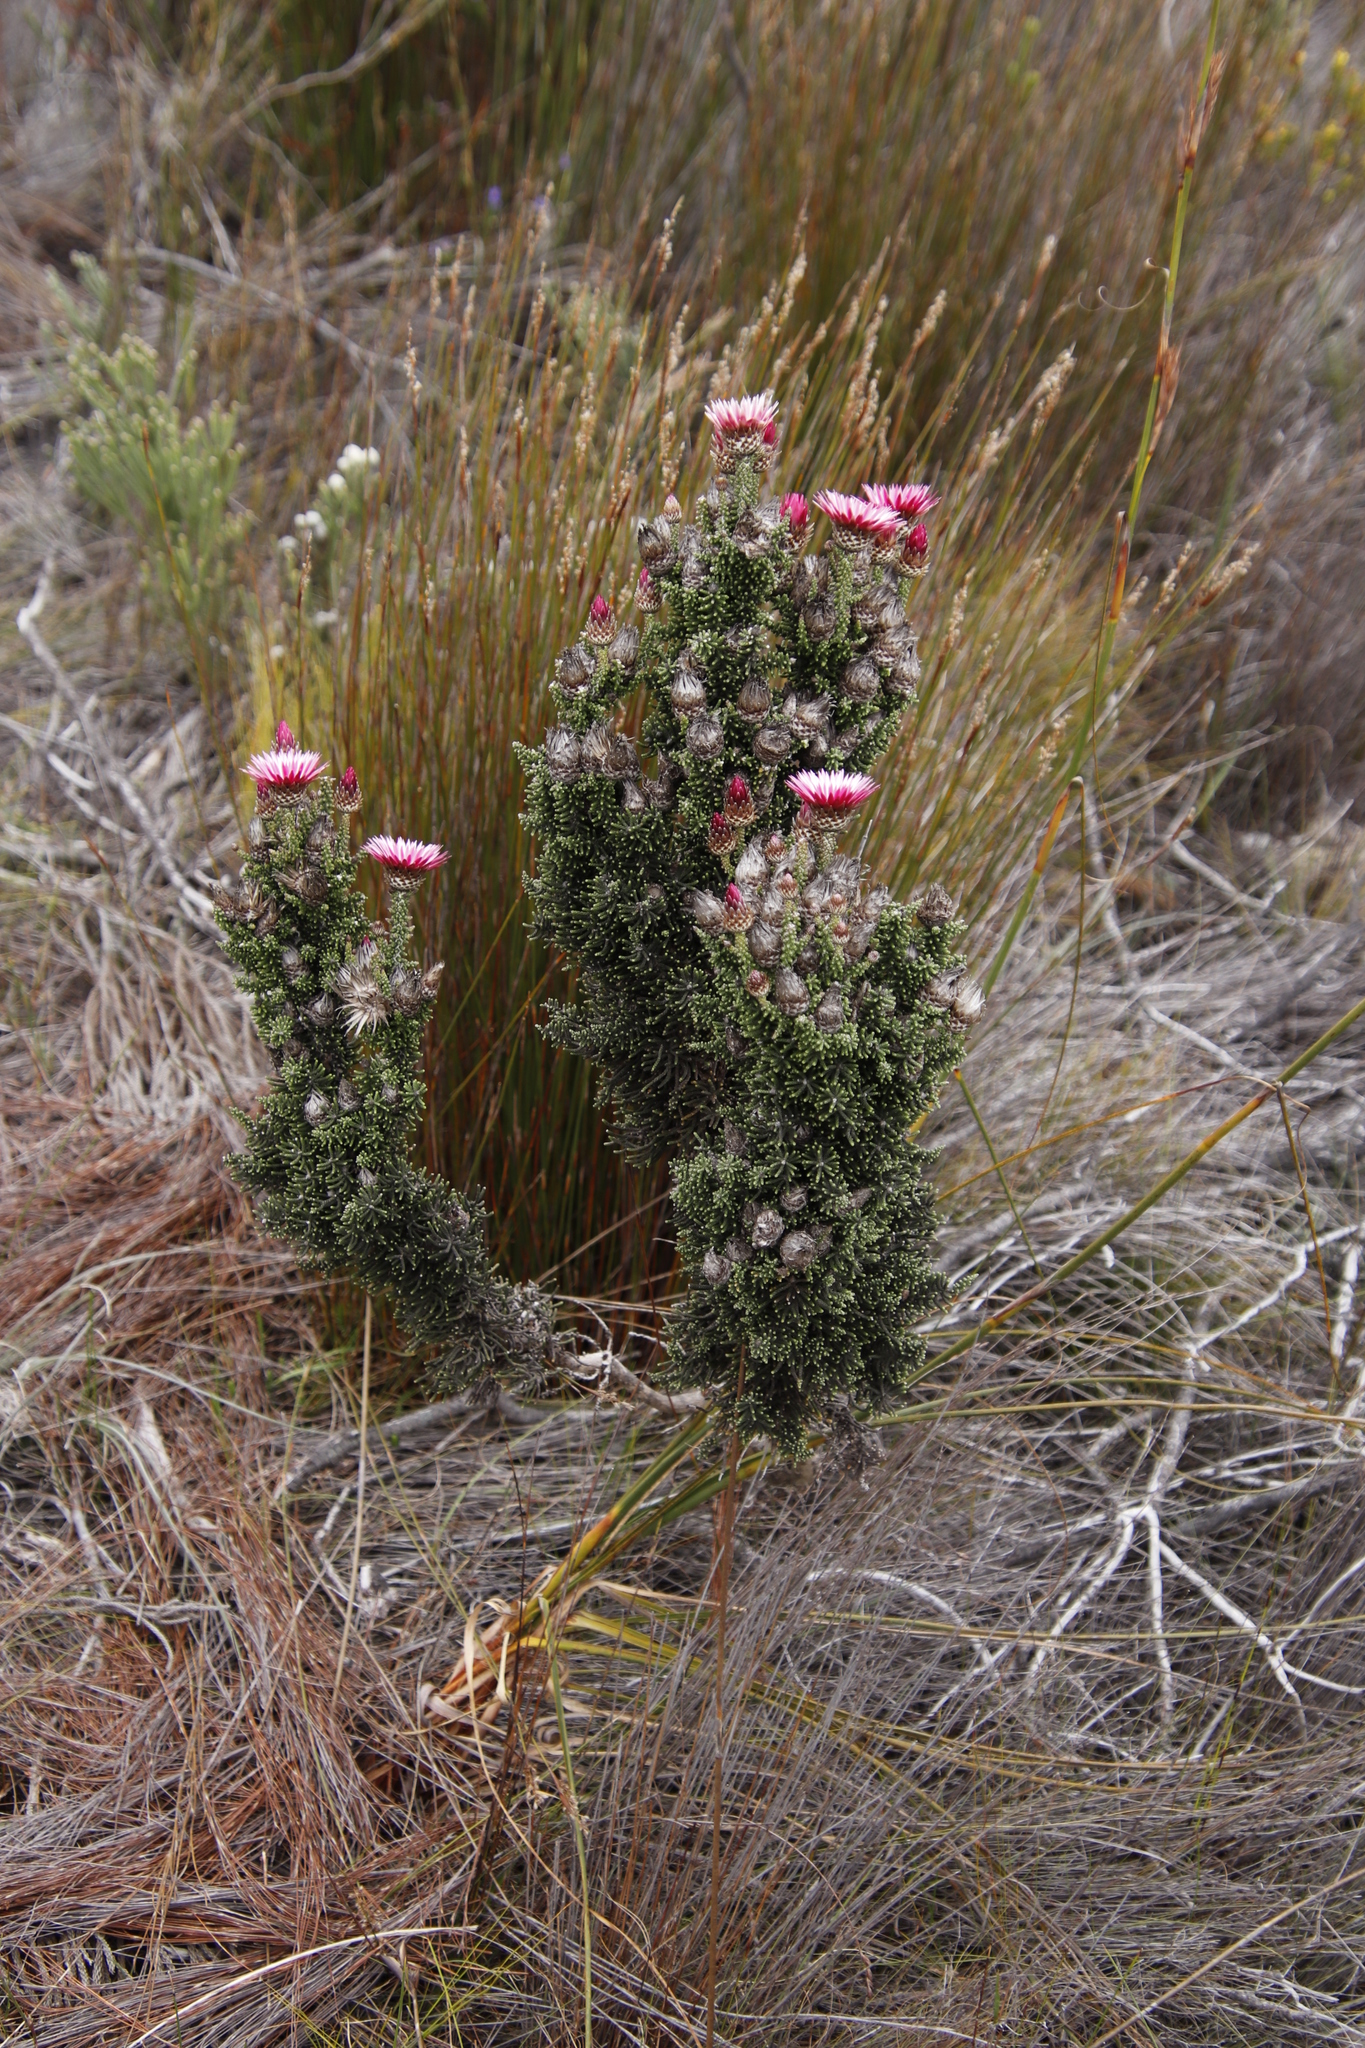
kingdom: Plantae
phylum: Tracheophyta
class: Magnoliopsida
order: Asterales
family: Asteraceae
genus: Phaenocoma
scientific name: Phaenocoma prolifera
